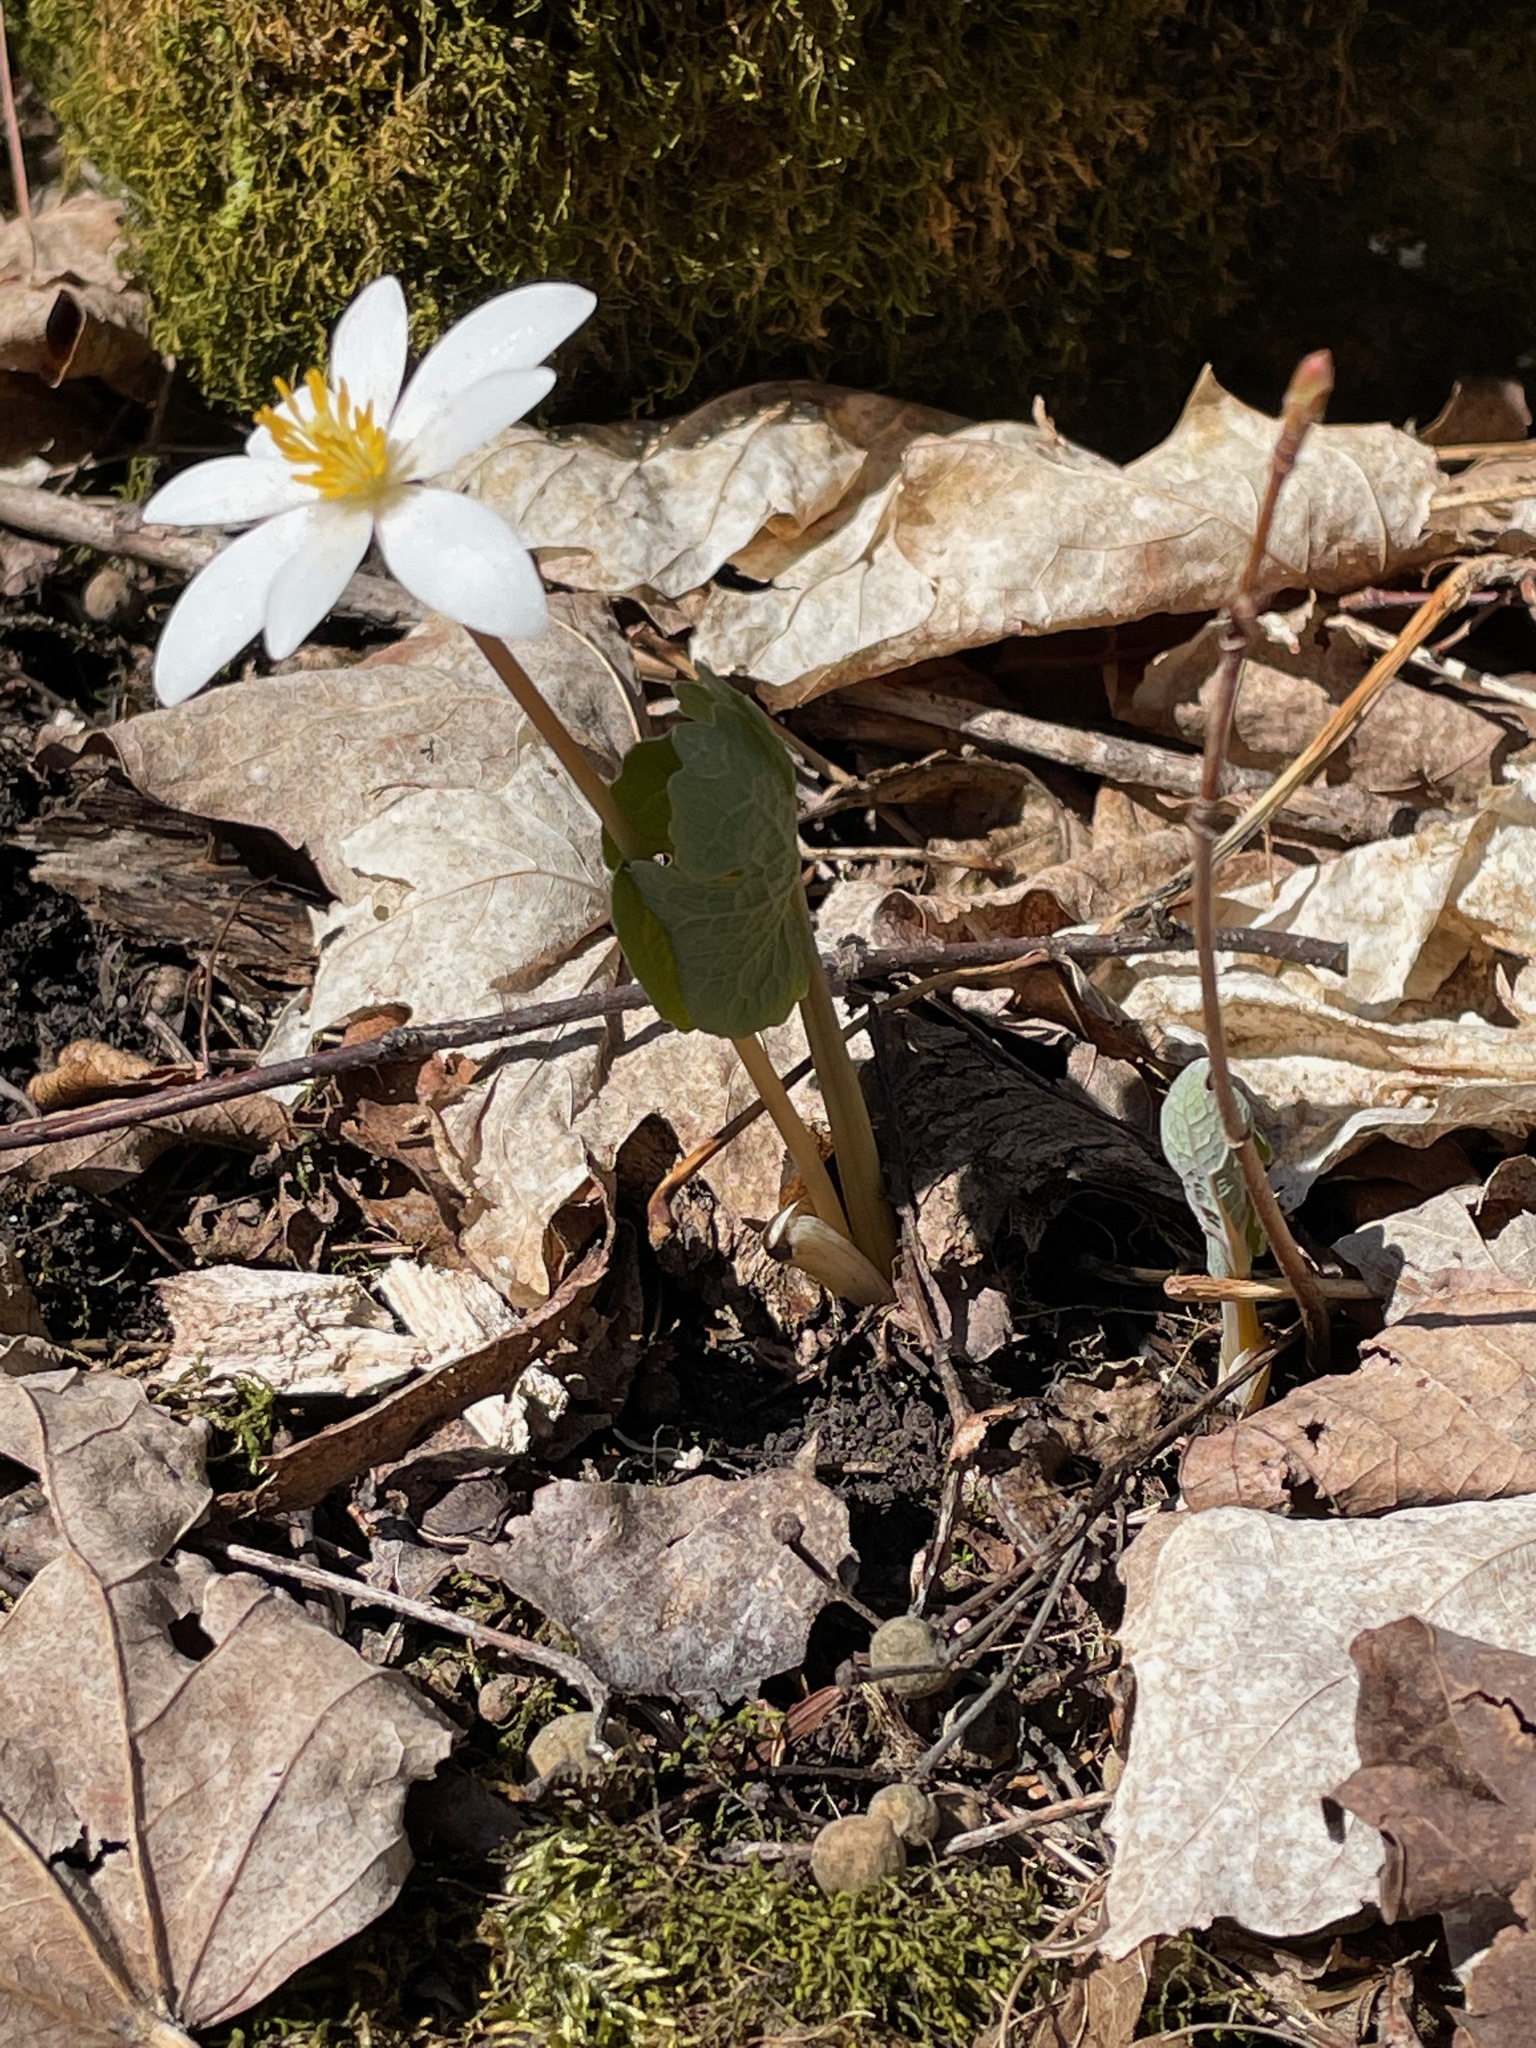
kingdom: Plantae
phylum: Tracheophyta
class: Magnoliopsida
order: Ranunculales
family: Papaveraceae
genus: Sanguinaria
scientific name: Sanguinaria canadensis
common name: Bloodroot
